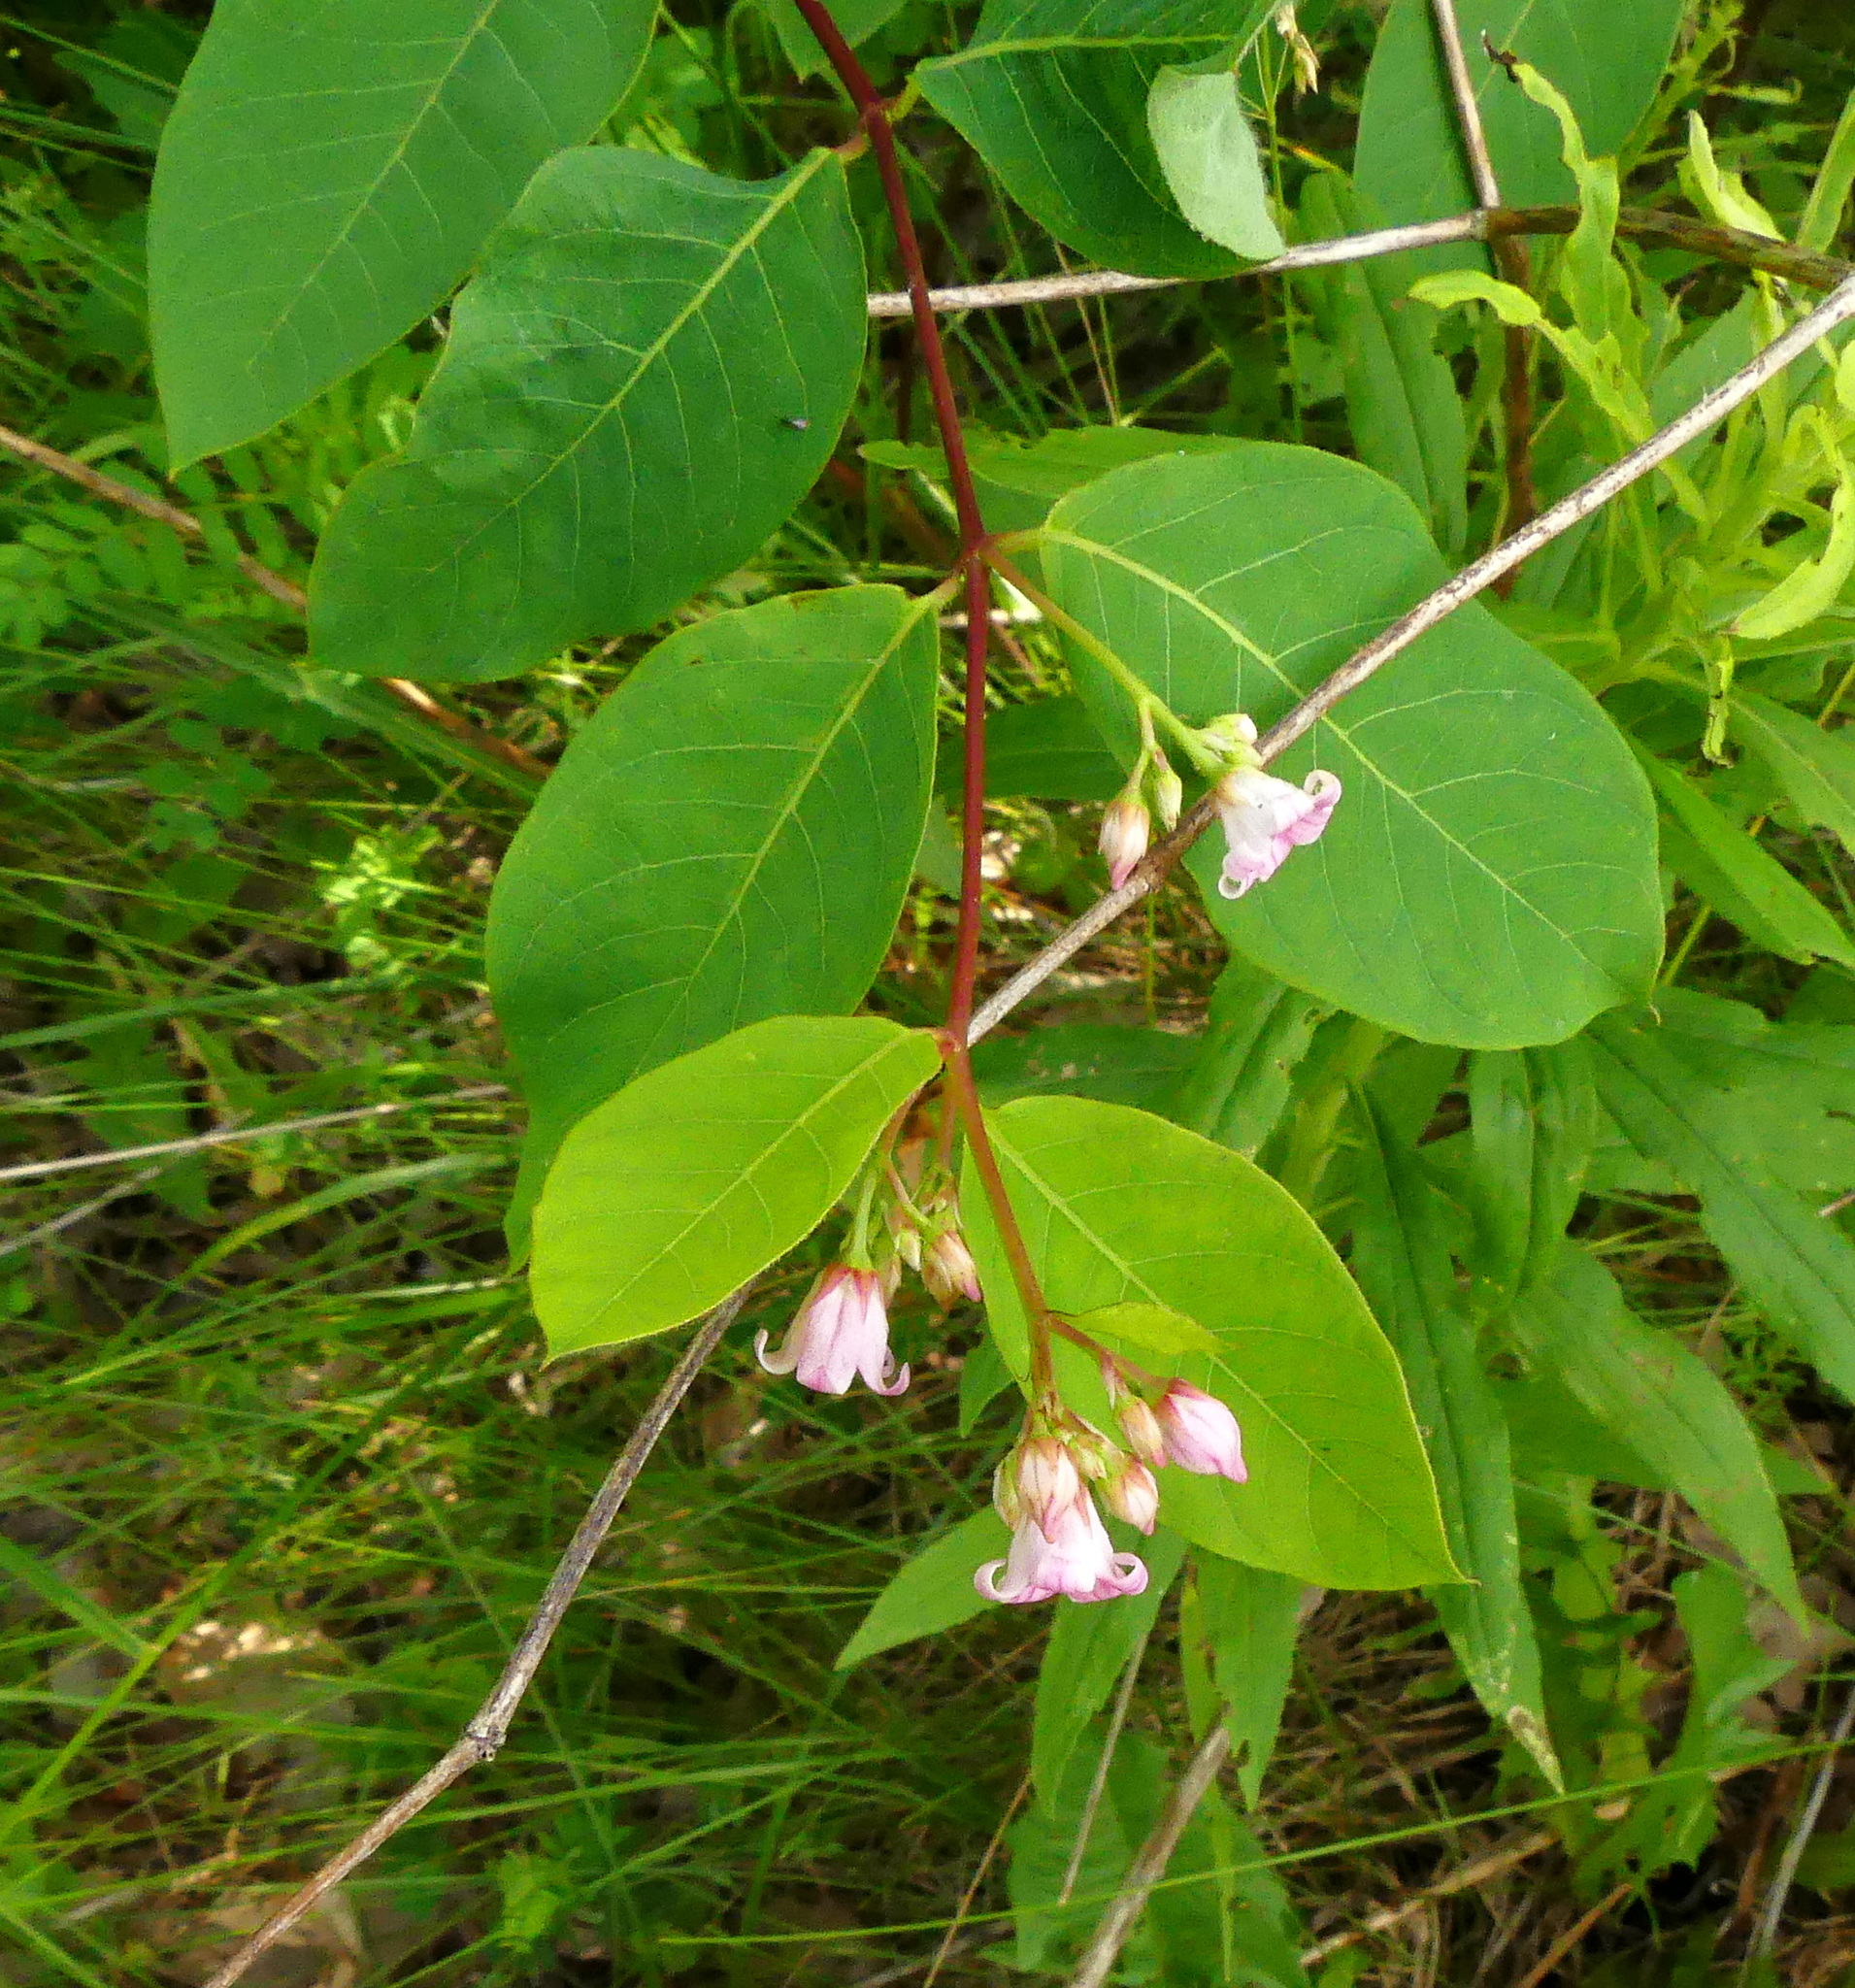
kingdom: Plantae
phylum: Tracheophyta
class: Magnoliopsida
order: Gentianales
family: Apocynaceae
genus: Apocynum
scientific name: Apocynum androsaemifolium
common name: Spreading dogbane
